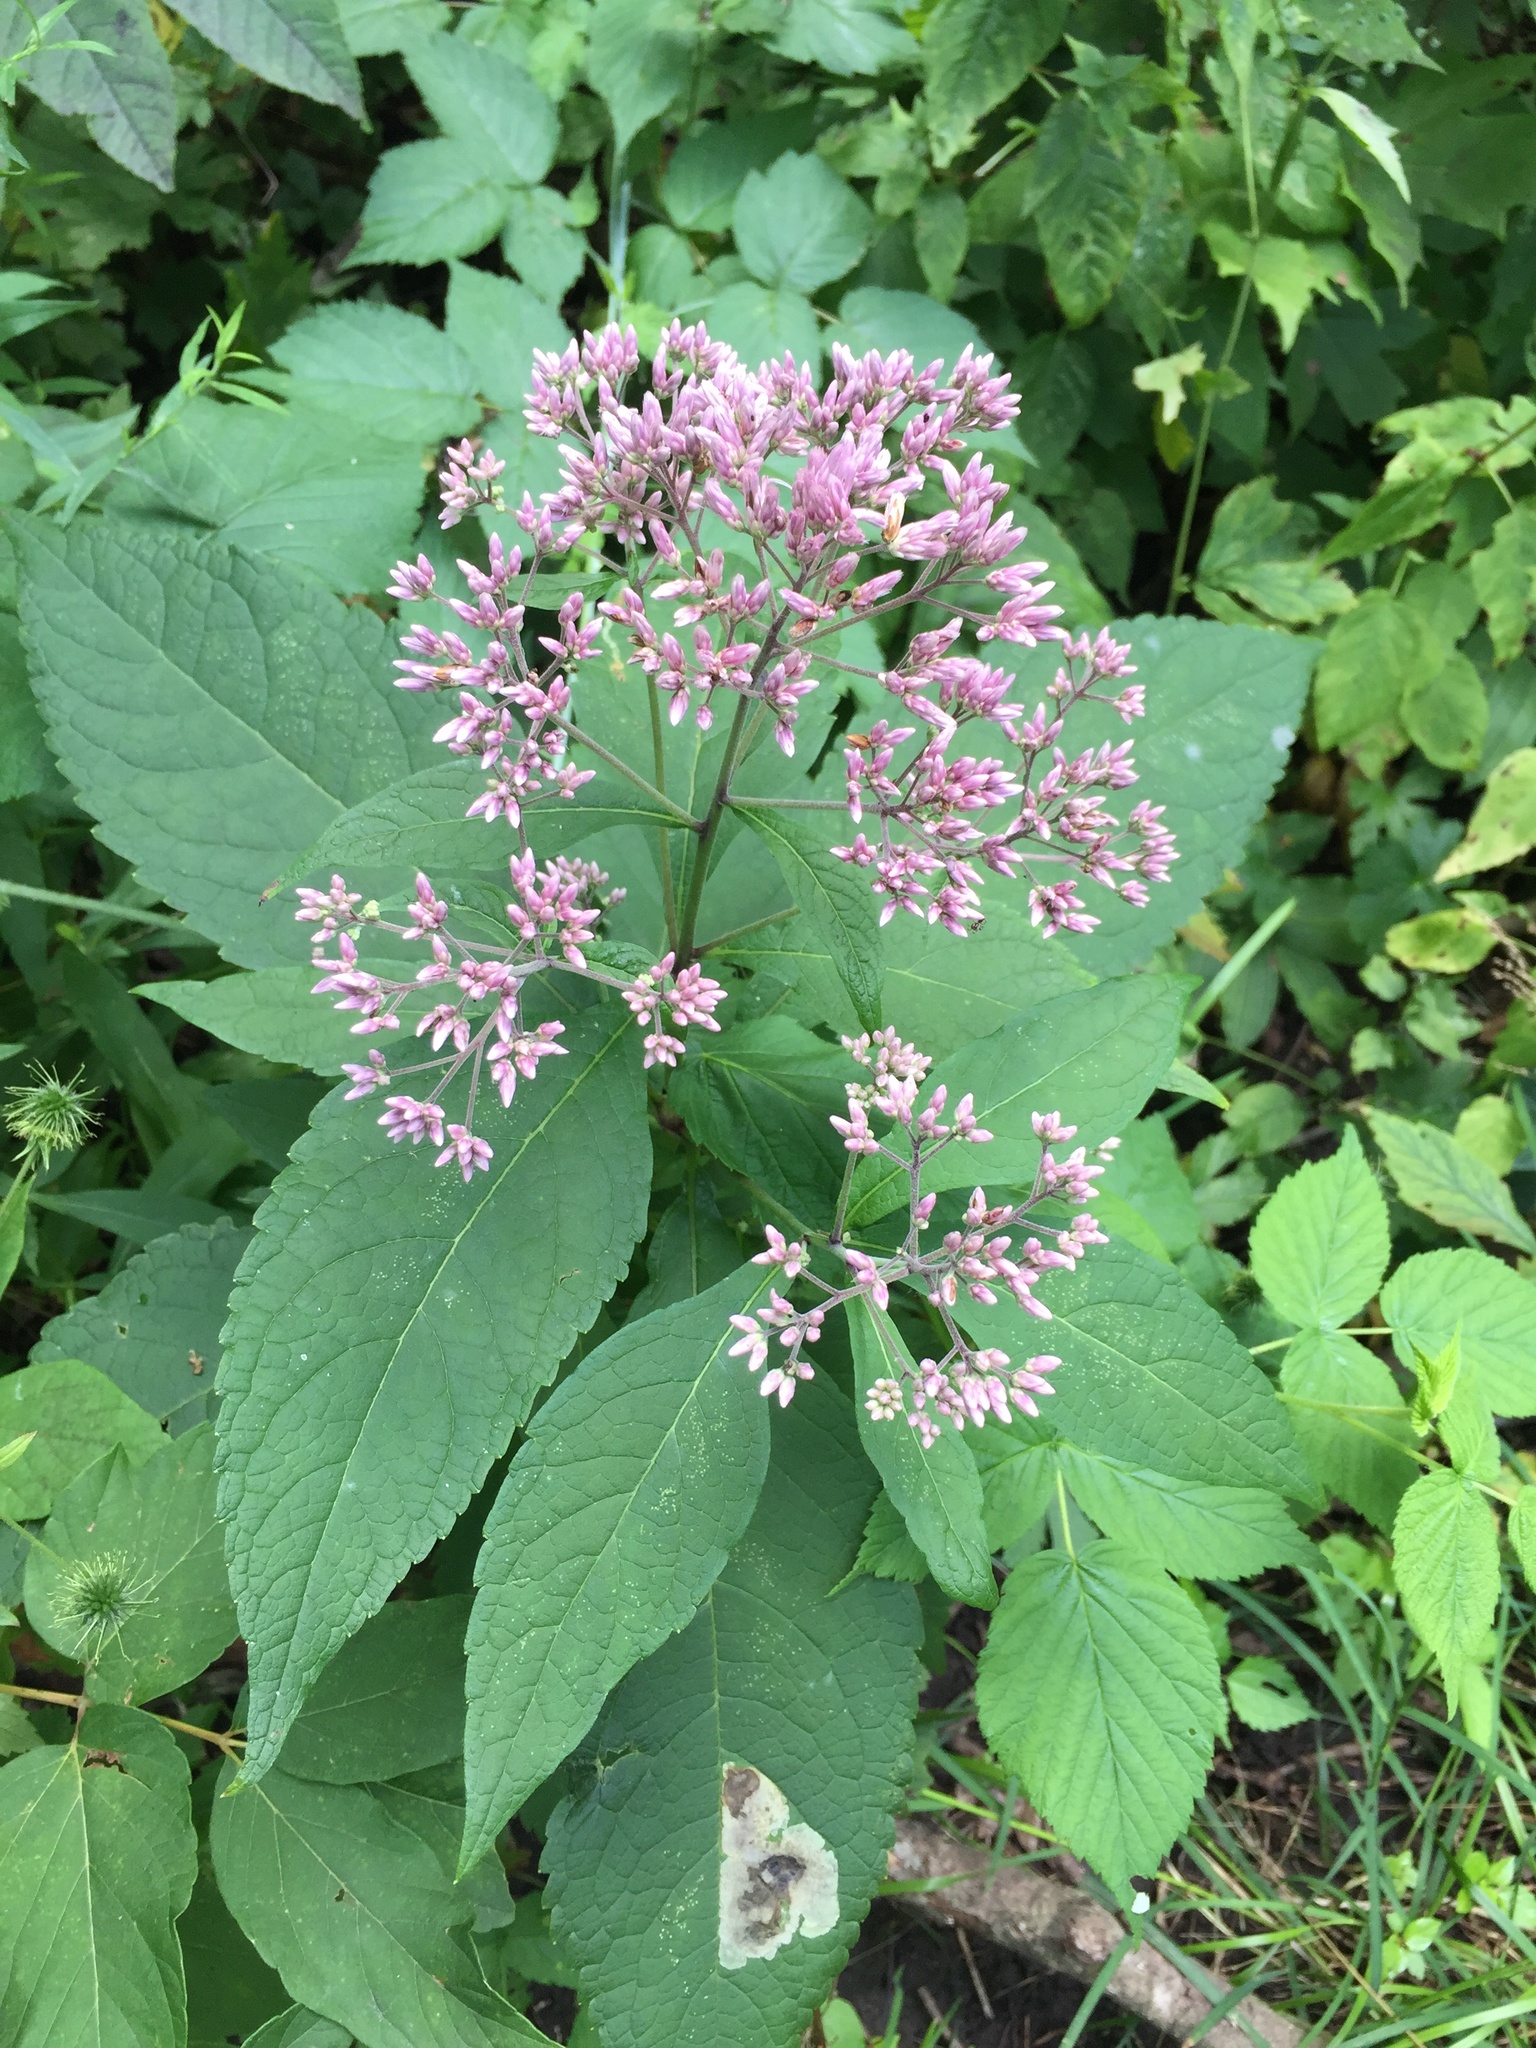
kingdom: Plantae
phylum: Tracheophyta
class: Magnoliopsida
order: Asterales
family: Asteraceae
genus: Eutrochium
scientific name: Eutrochium purpureum
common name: Gravelroot
